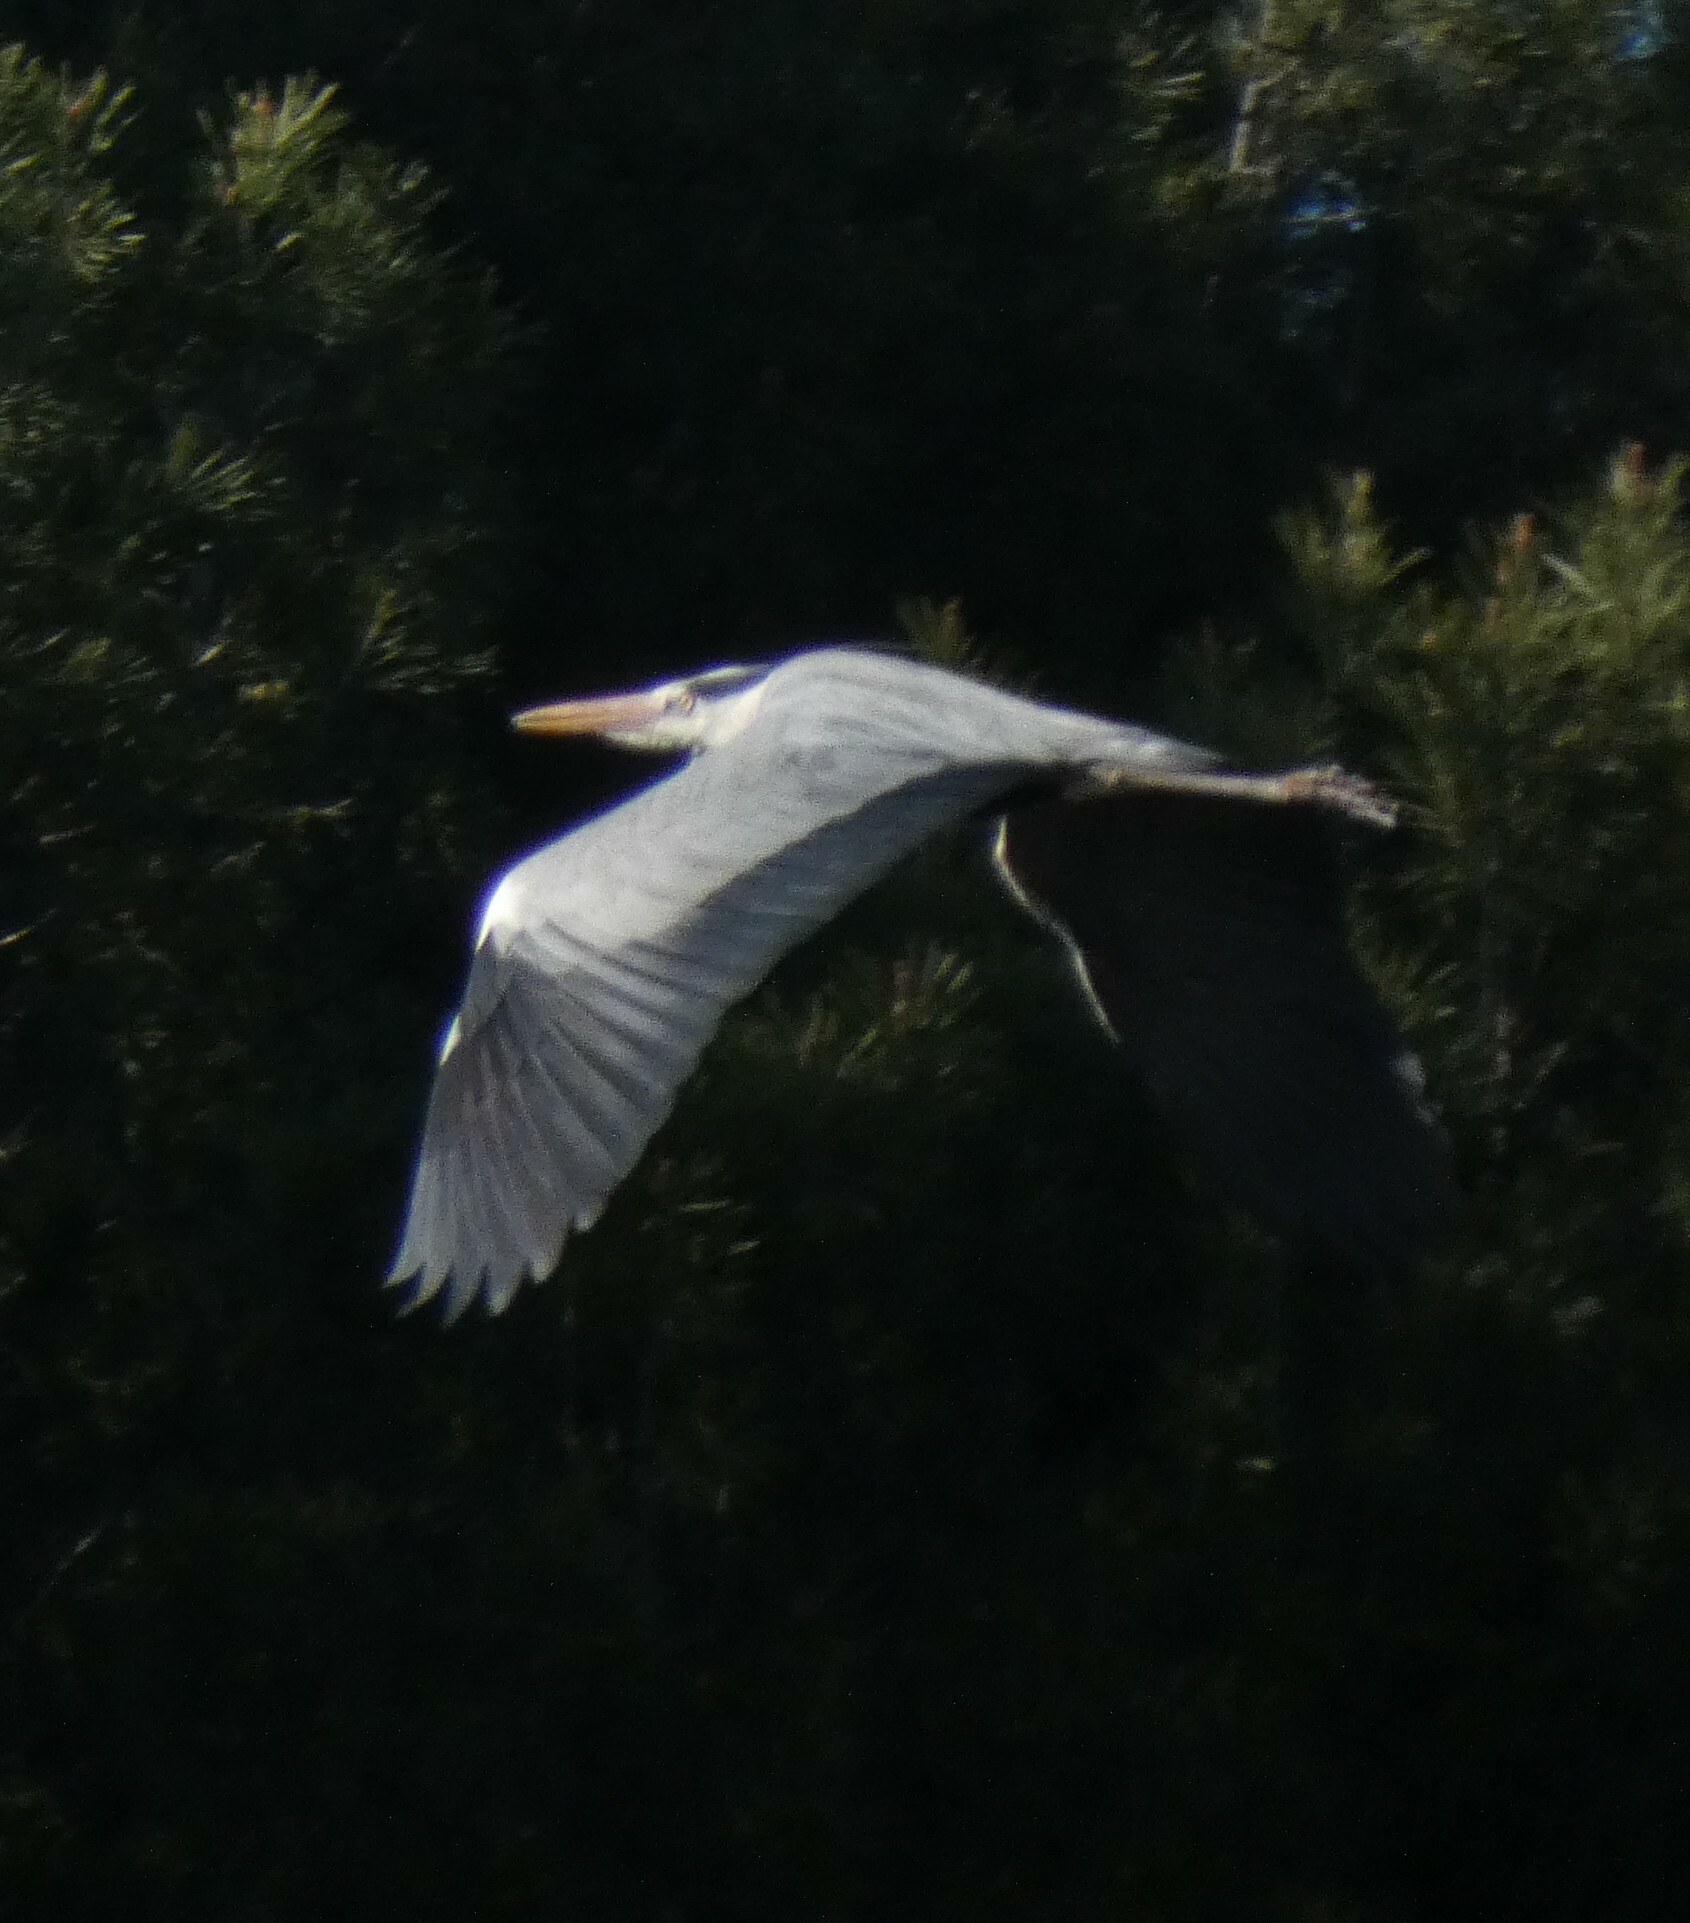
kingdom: Animalia
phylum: Chordata
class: Aves
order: Pelecaniformes
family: Ardeidae
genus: Ardea
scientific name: Ardea cinerea
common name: Grey heron
